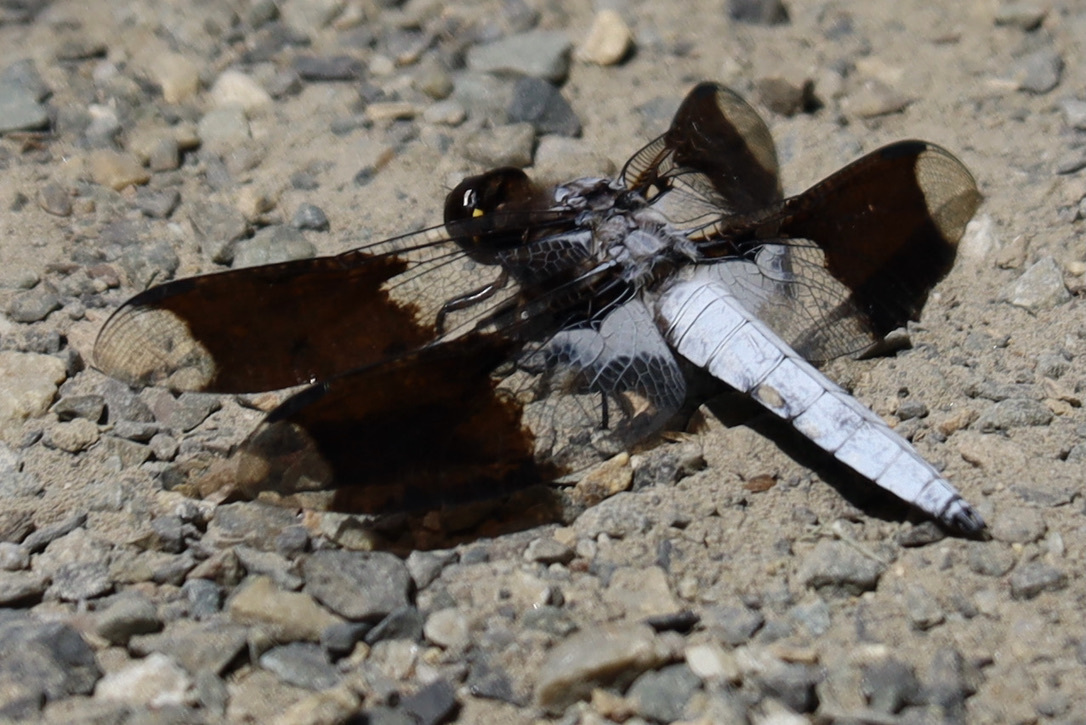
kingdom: Animalia
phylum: Arthropoda
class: Insecta
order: Odonata
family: Libellulidae
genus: Plathemis
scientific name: Plathemis lydia
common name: Common whitetail
